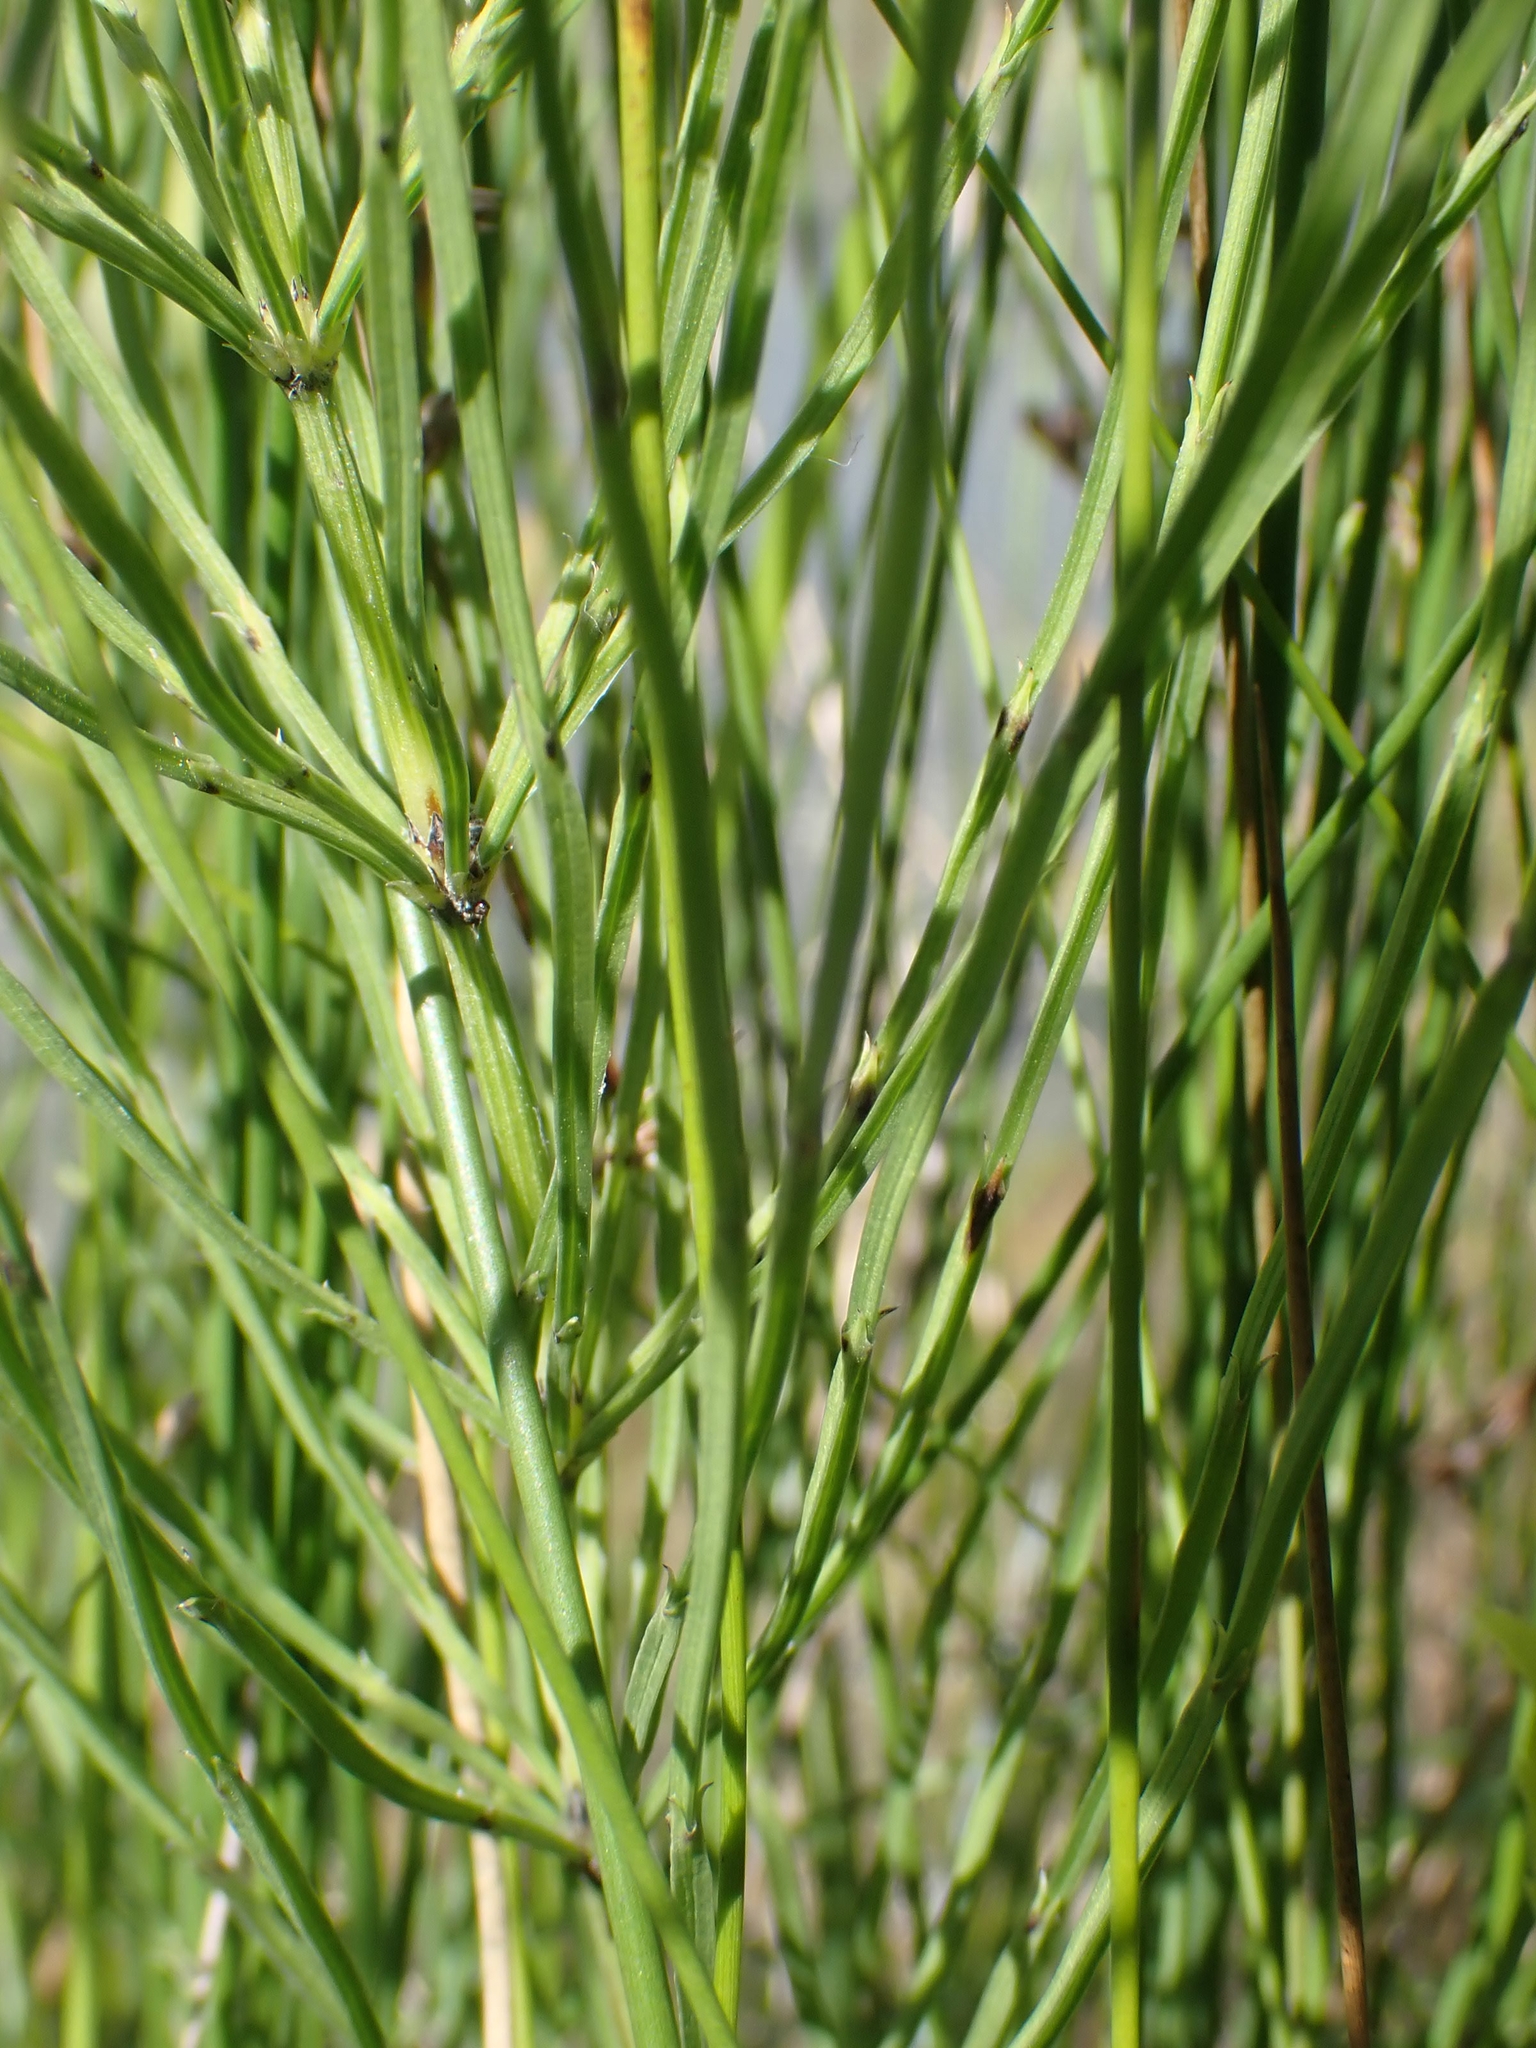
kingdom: Plantae
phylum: Tracheophyta
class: Polypodiopsida
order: Equisetales
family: Equisetaceae
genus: Equisetum
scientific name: Equisetum arvense
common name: Field horsetail
